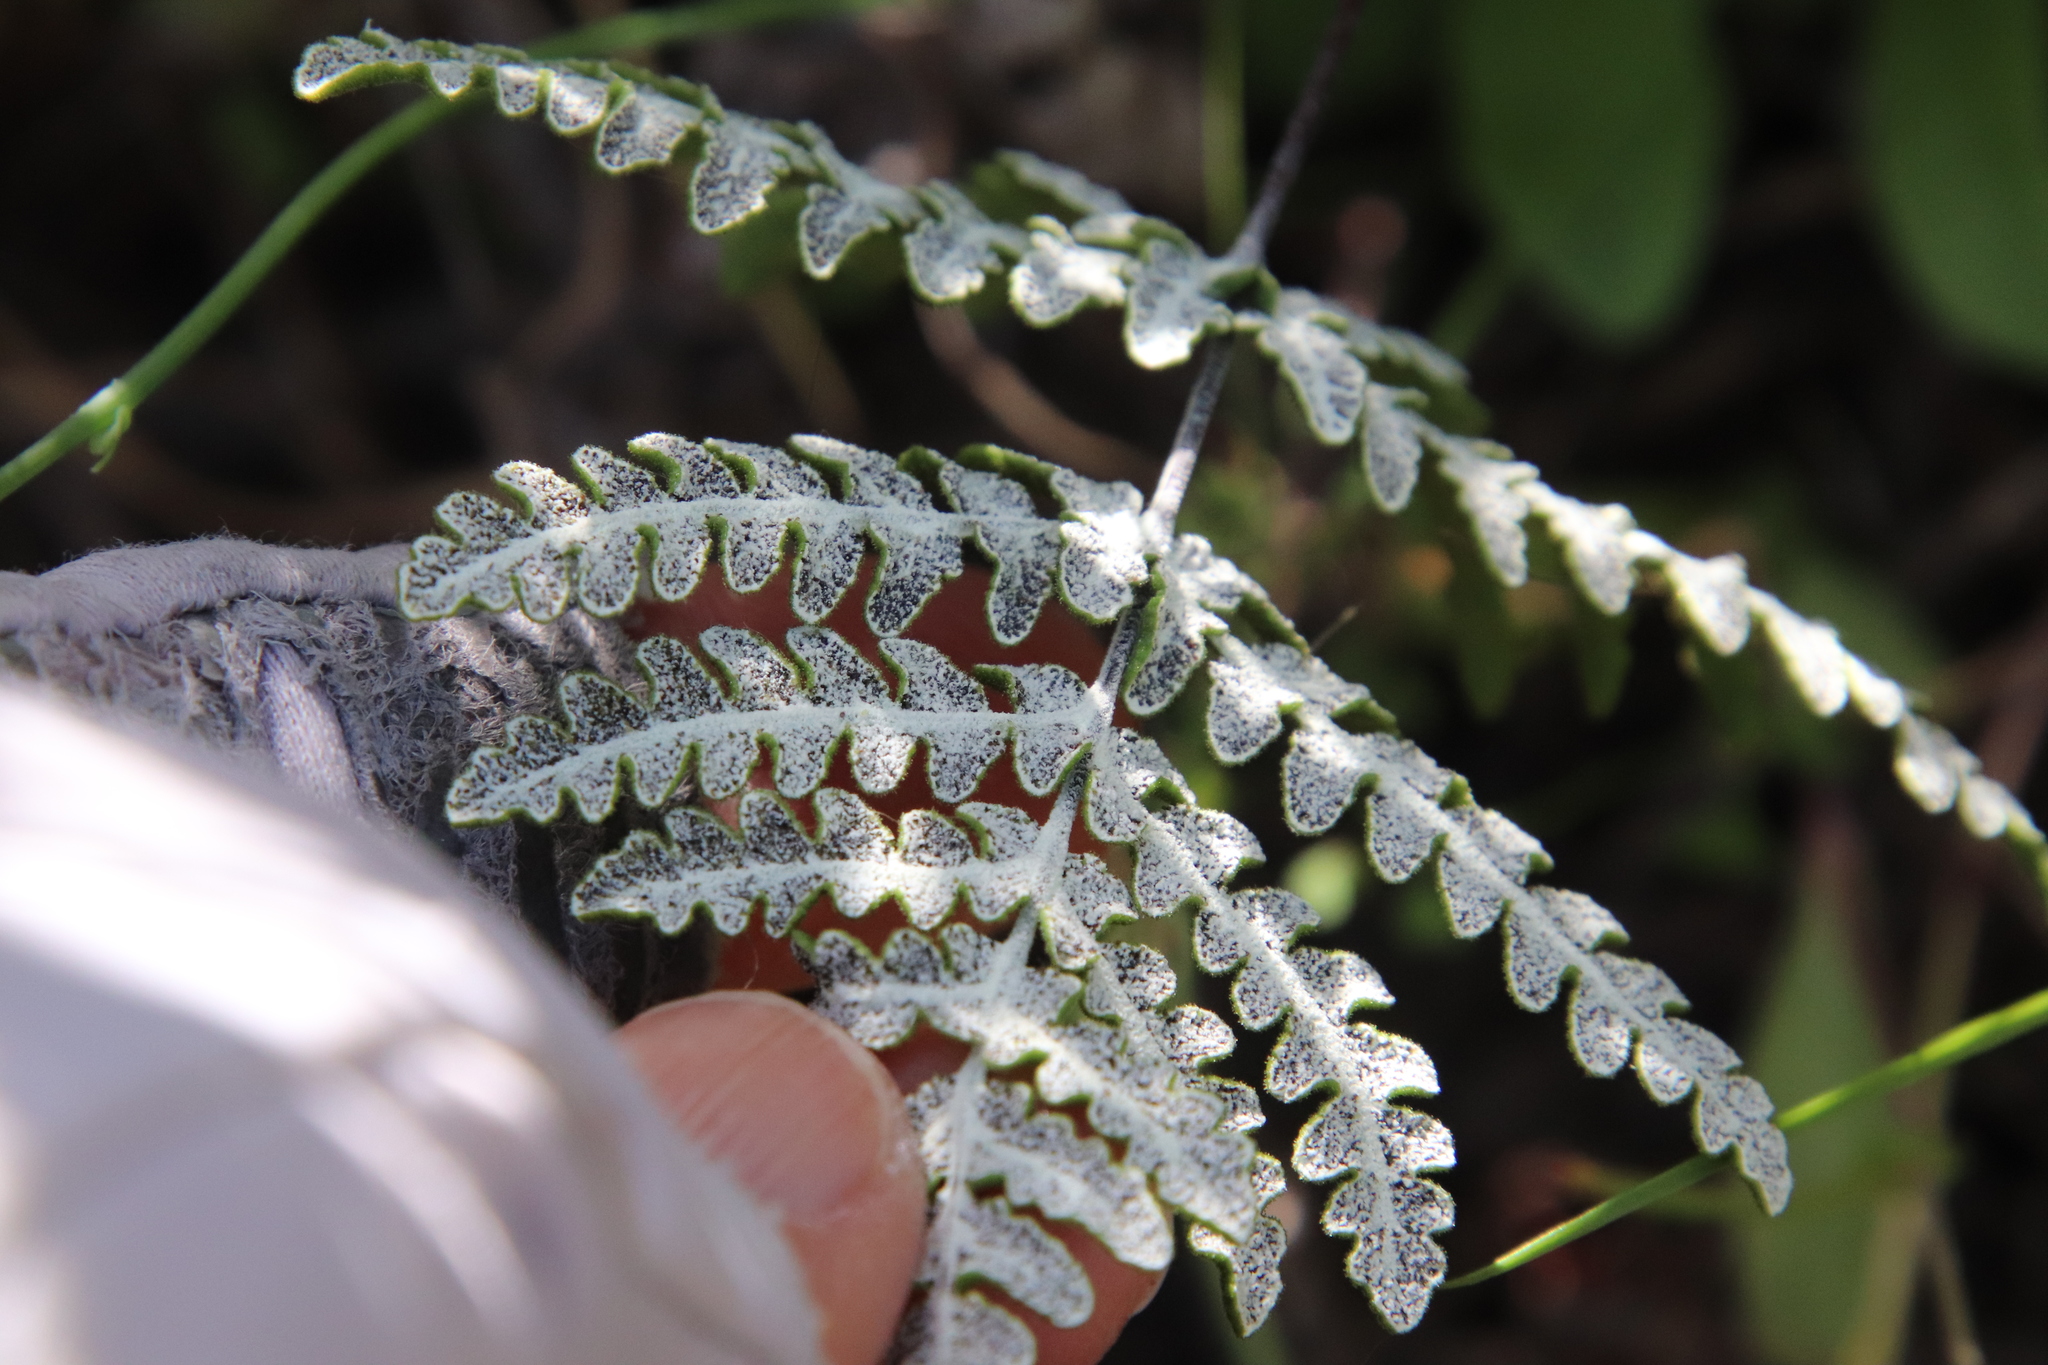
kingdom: Plantae
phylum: Tracheophyta
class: Polypodiopsida
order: Polypodiales
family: Pteridaceae
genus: Pentagramma
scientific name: Pentagramma glanduloviscida
